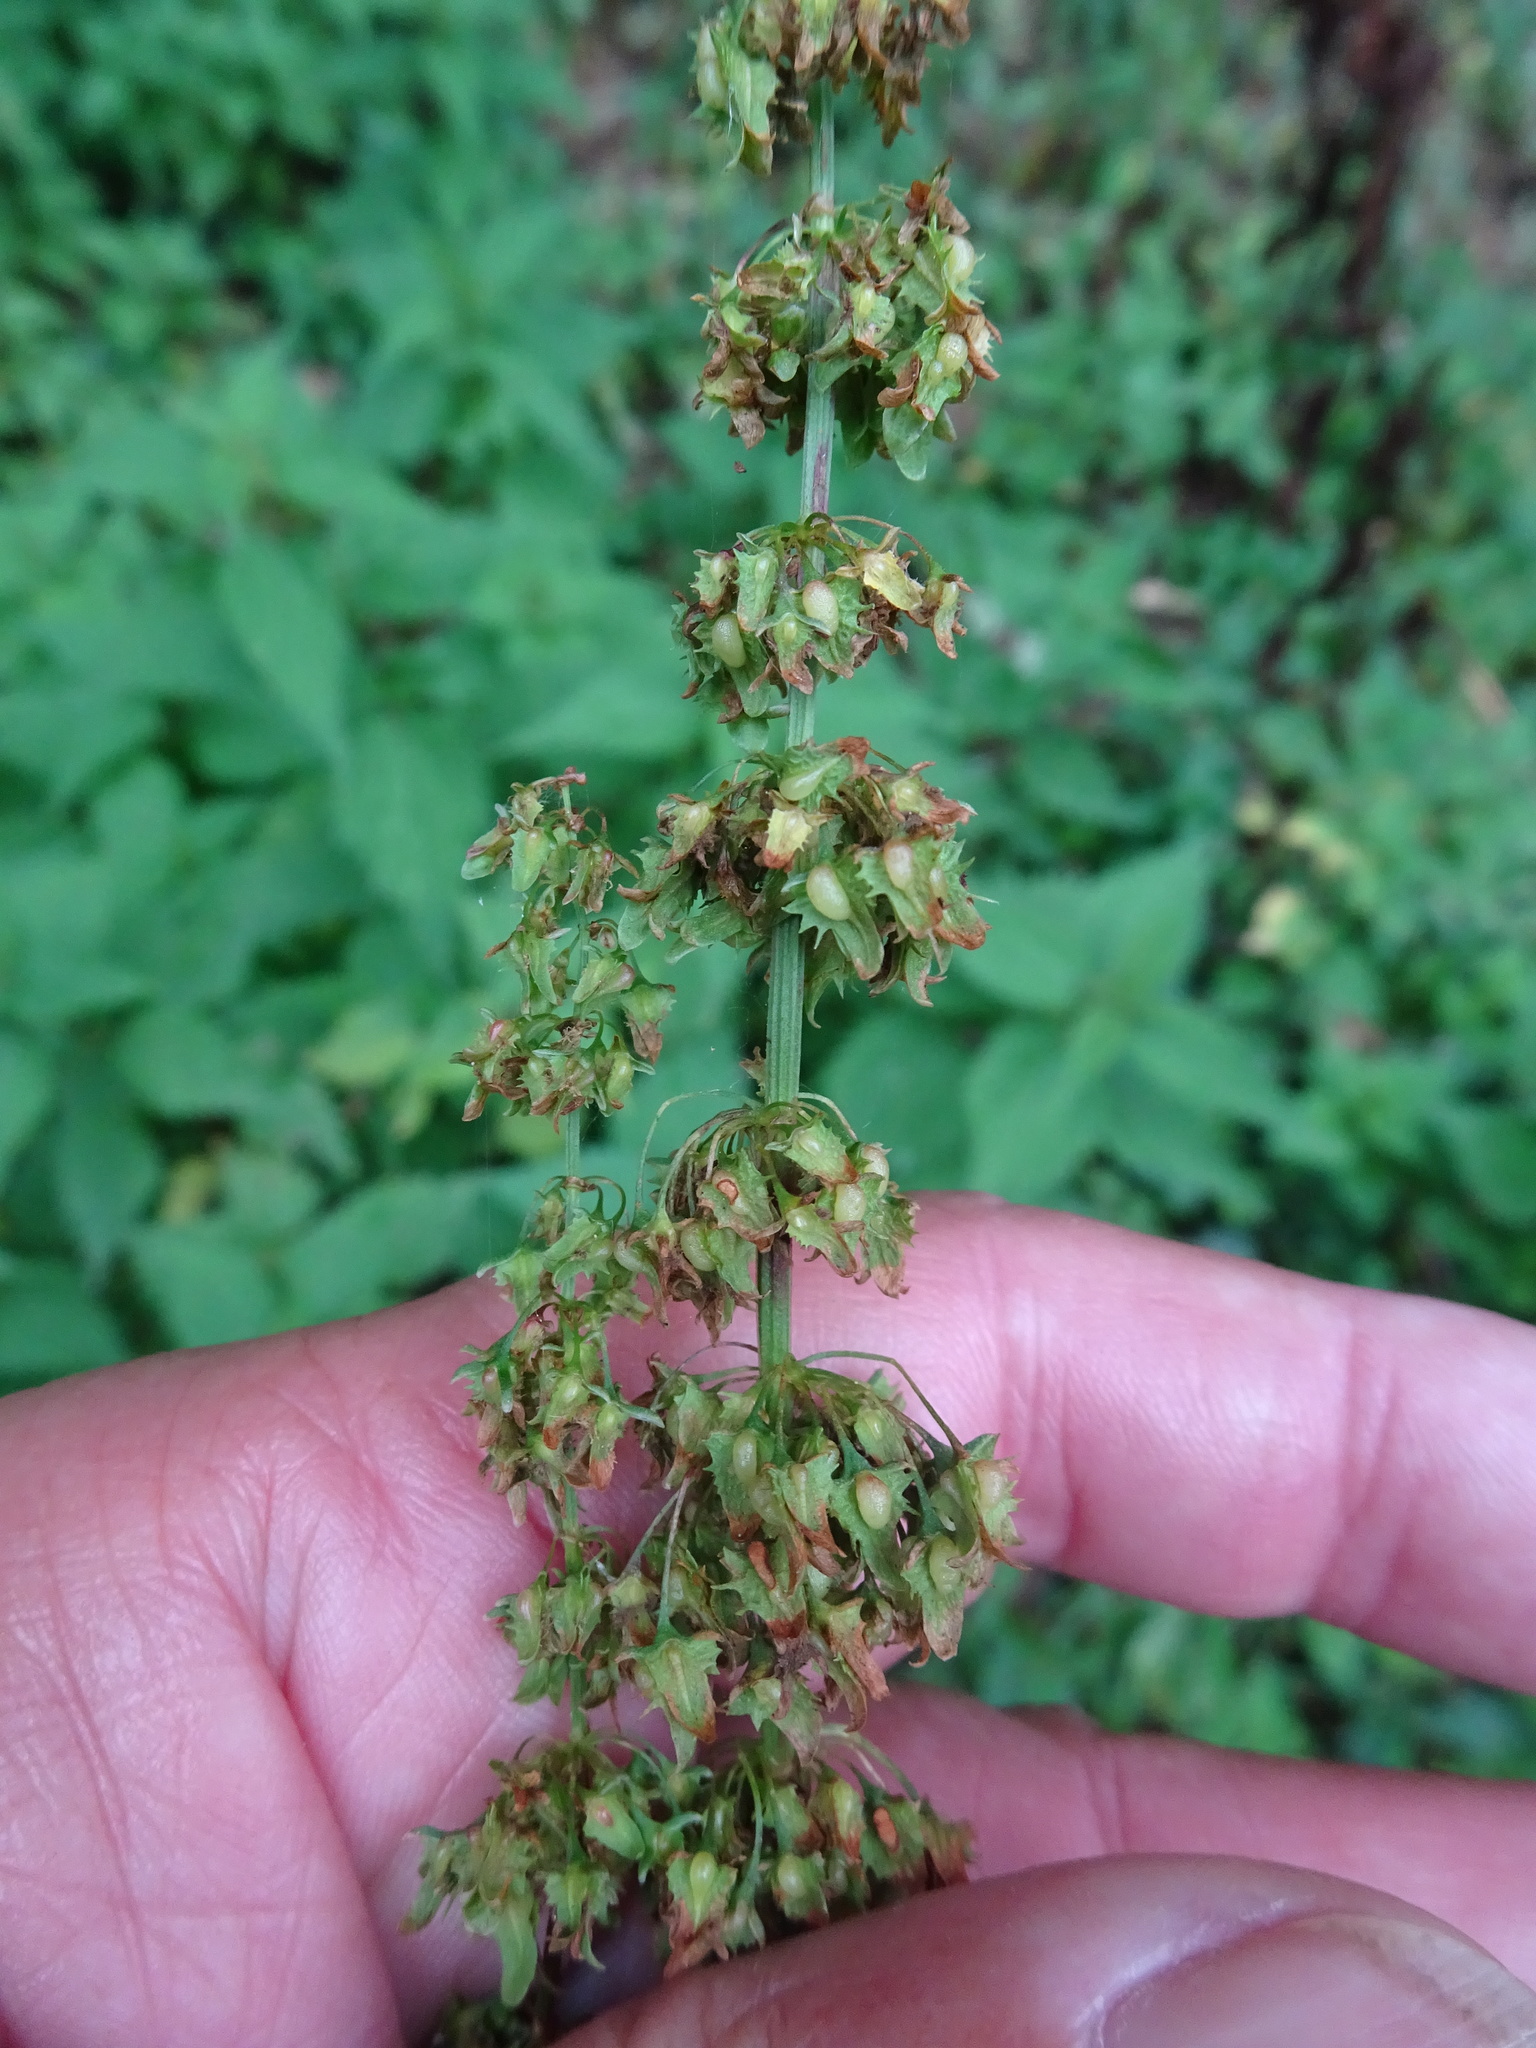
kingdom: Plantae
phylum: Tracheophyta
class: Magnoliopsida
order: Caryophyllales
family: Polygonaceae
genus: Rumex
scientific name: Rumex obtusifolius
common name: Bitter dock
